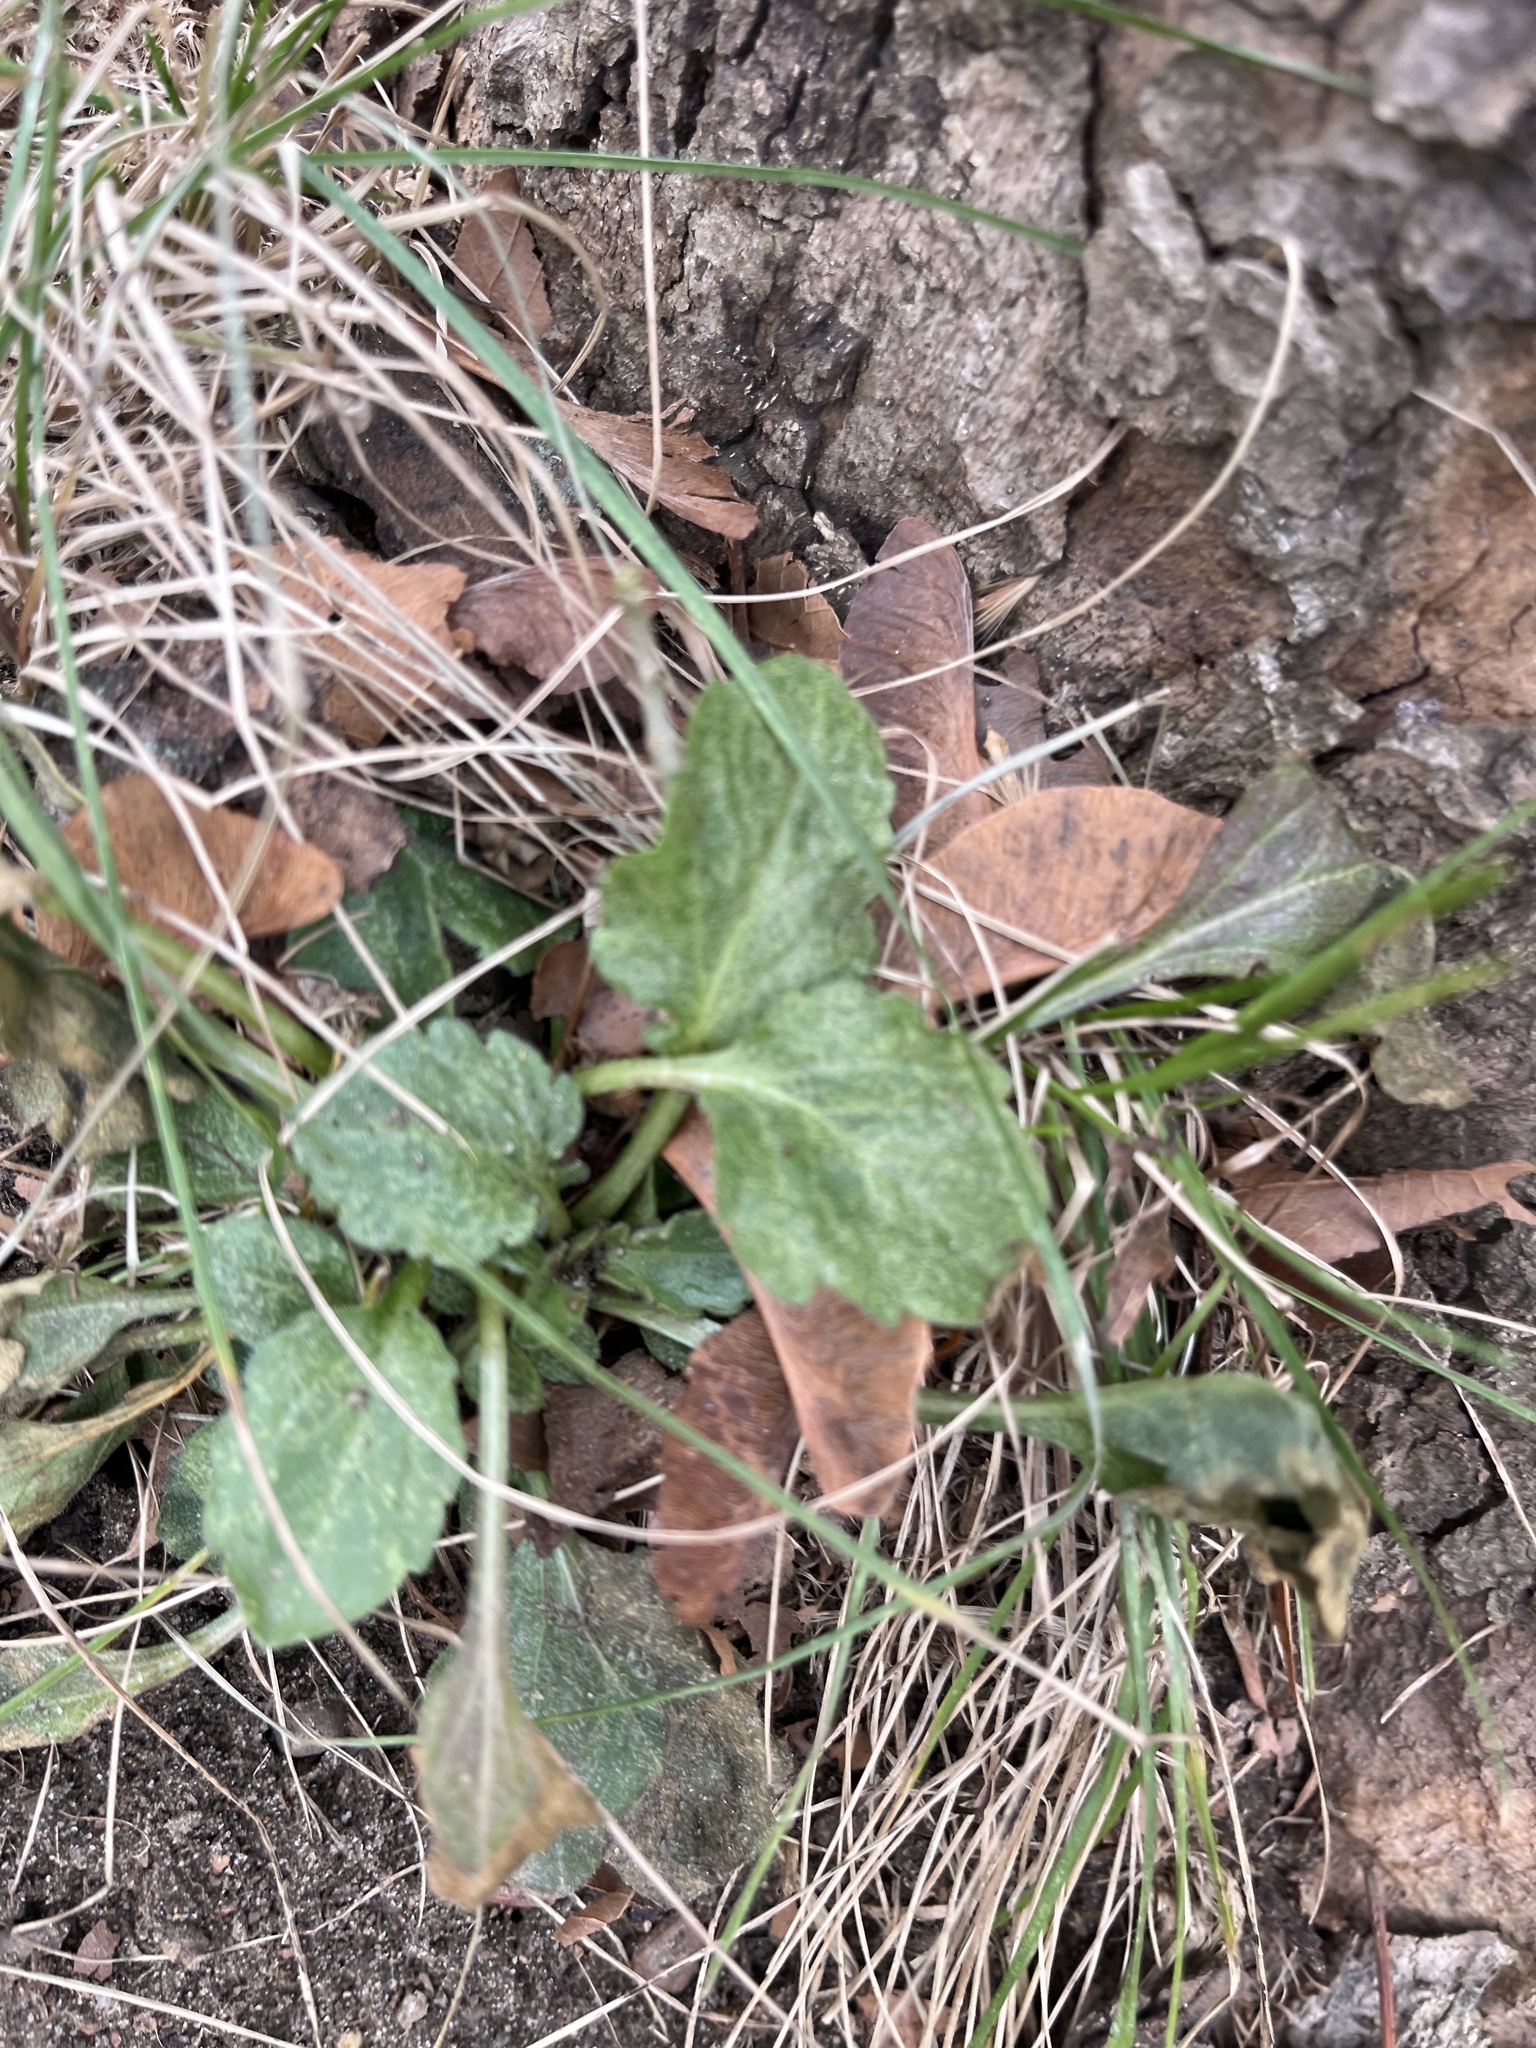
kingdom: Plantae
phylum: Tracheophyta
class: Magnoliopsida
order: Asterales
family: Asteraceae
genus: Erigeron
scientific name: Erigeron
